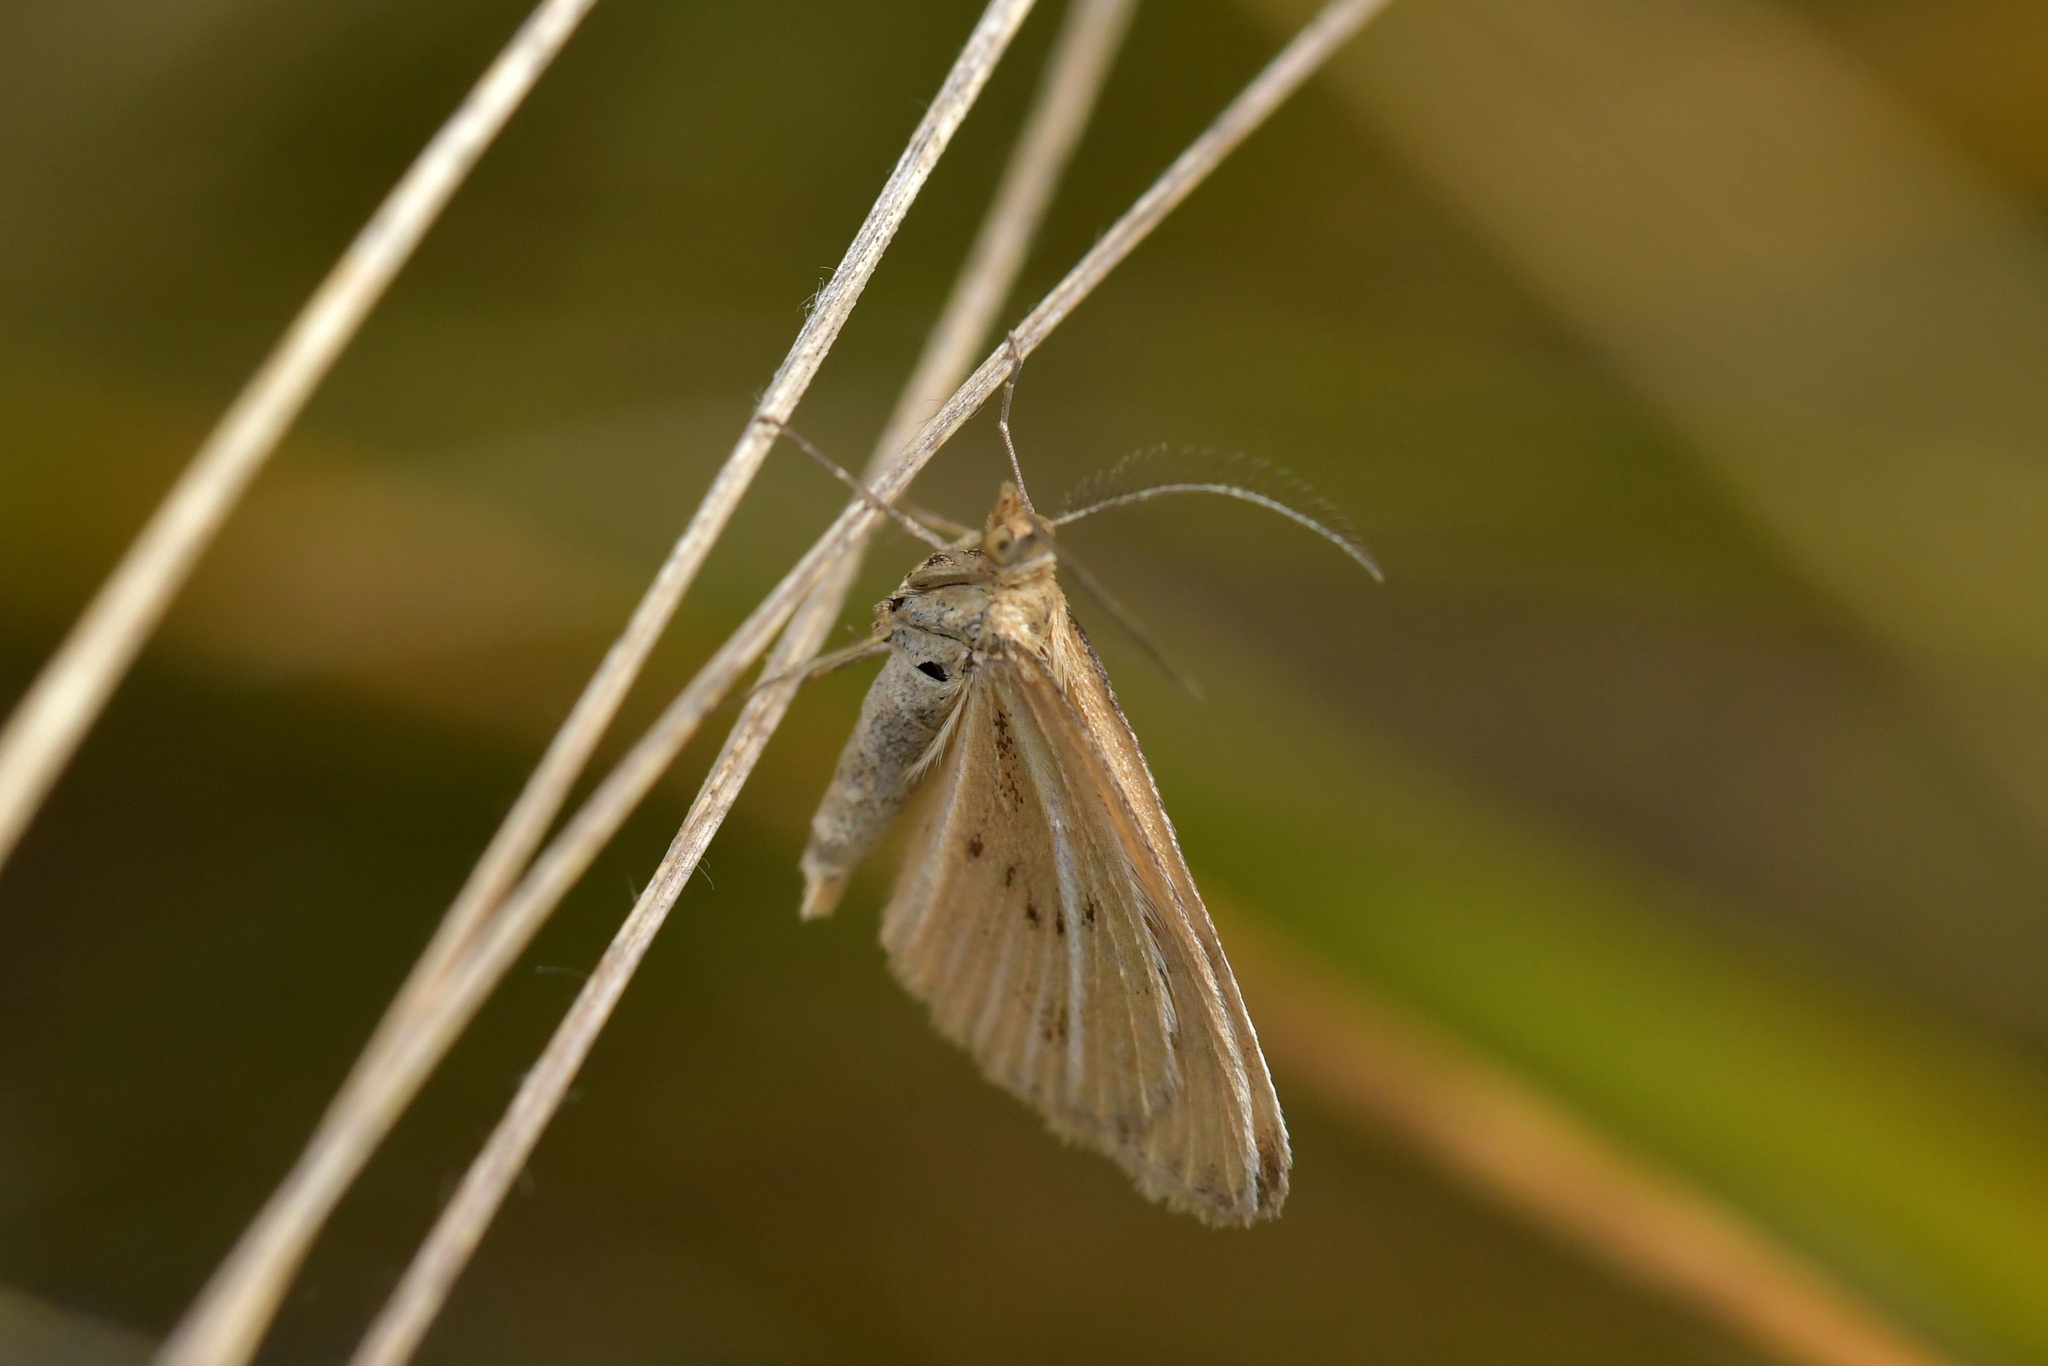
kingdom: Animalia
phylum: Arthropoda
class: Insecta
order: Lepidoptera
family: Geometridae
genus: Asaphodes
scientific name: Asaphodes abrogata
